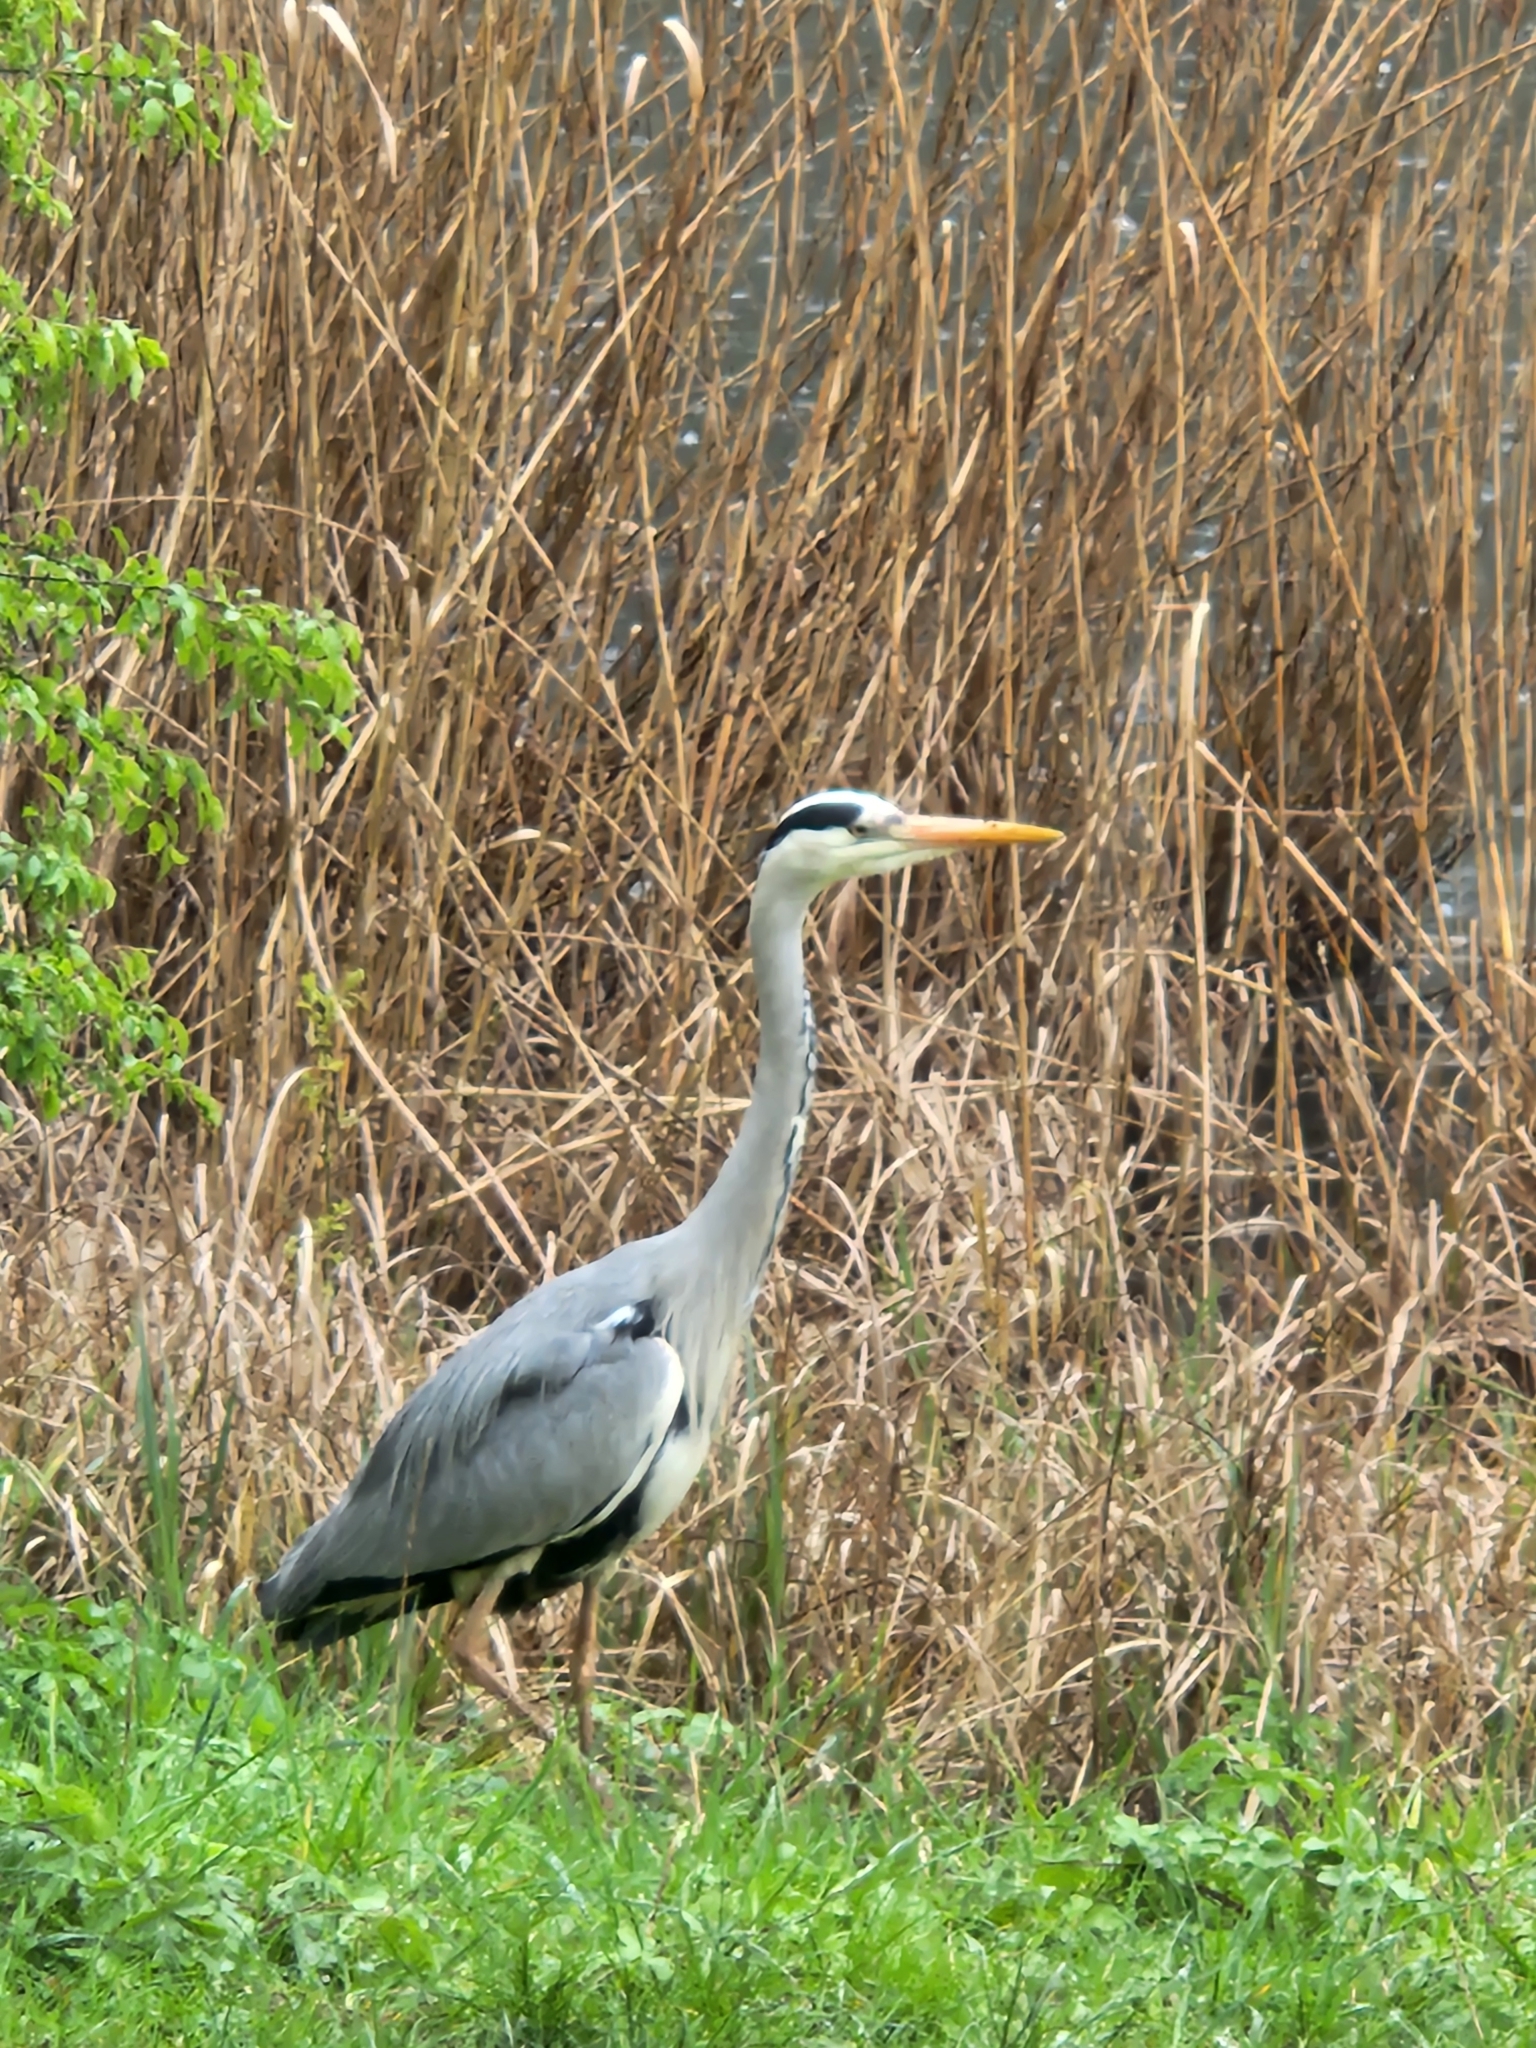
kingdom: Animalia
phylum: Chordata
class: Aves
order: Pelecaniformes
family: Ardeidae
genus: Ardea
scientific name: Ardea cinerea
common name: Grey heron
